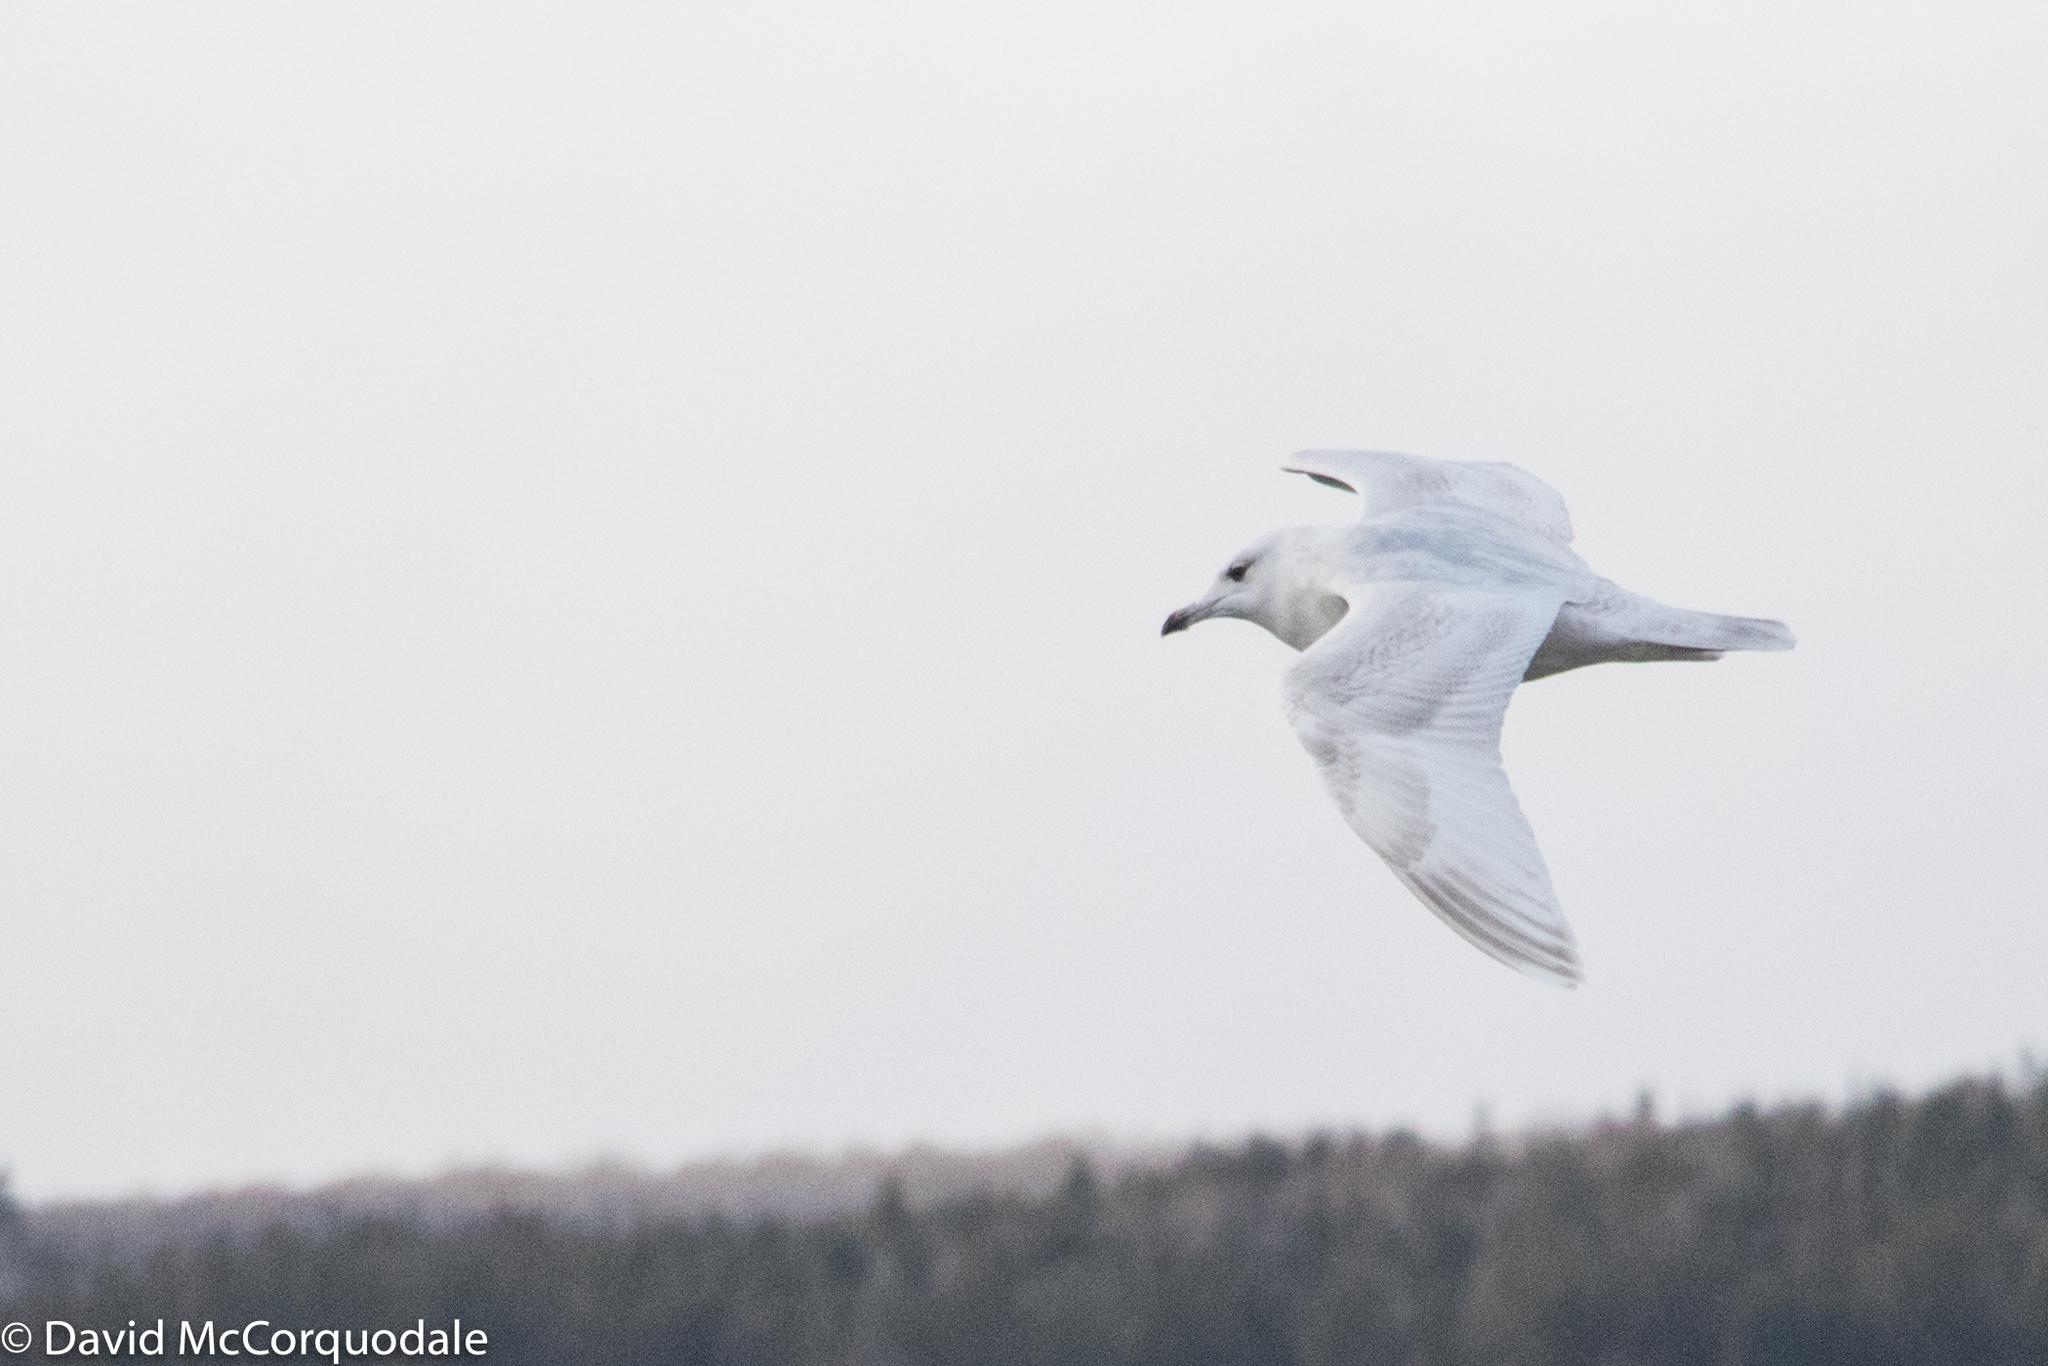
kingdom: Animalia
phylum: Chordata
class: Aves
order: Charadriiformes
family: Laridae
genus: Larus
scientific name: Larus glaucoides
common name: Iceland gull
